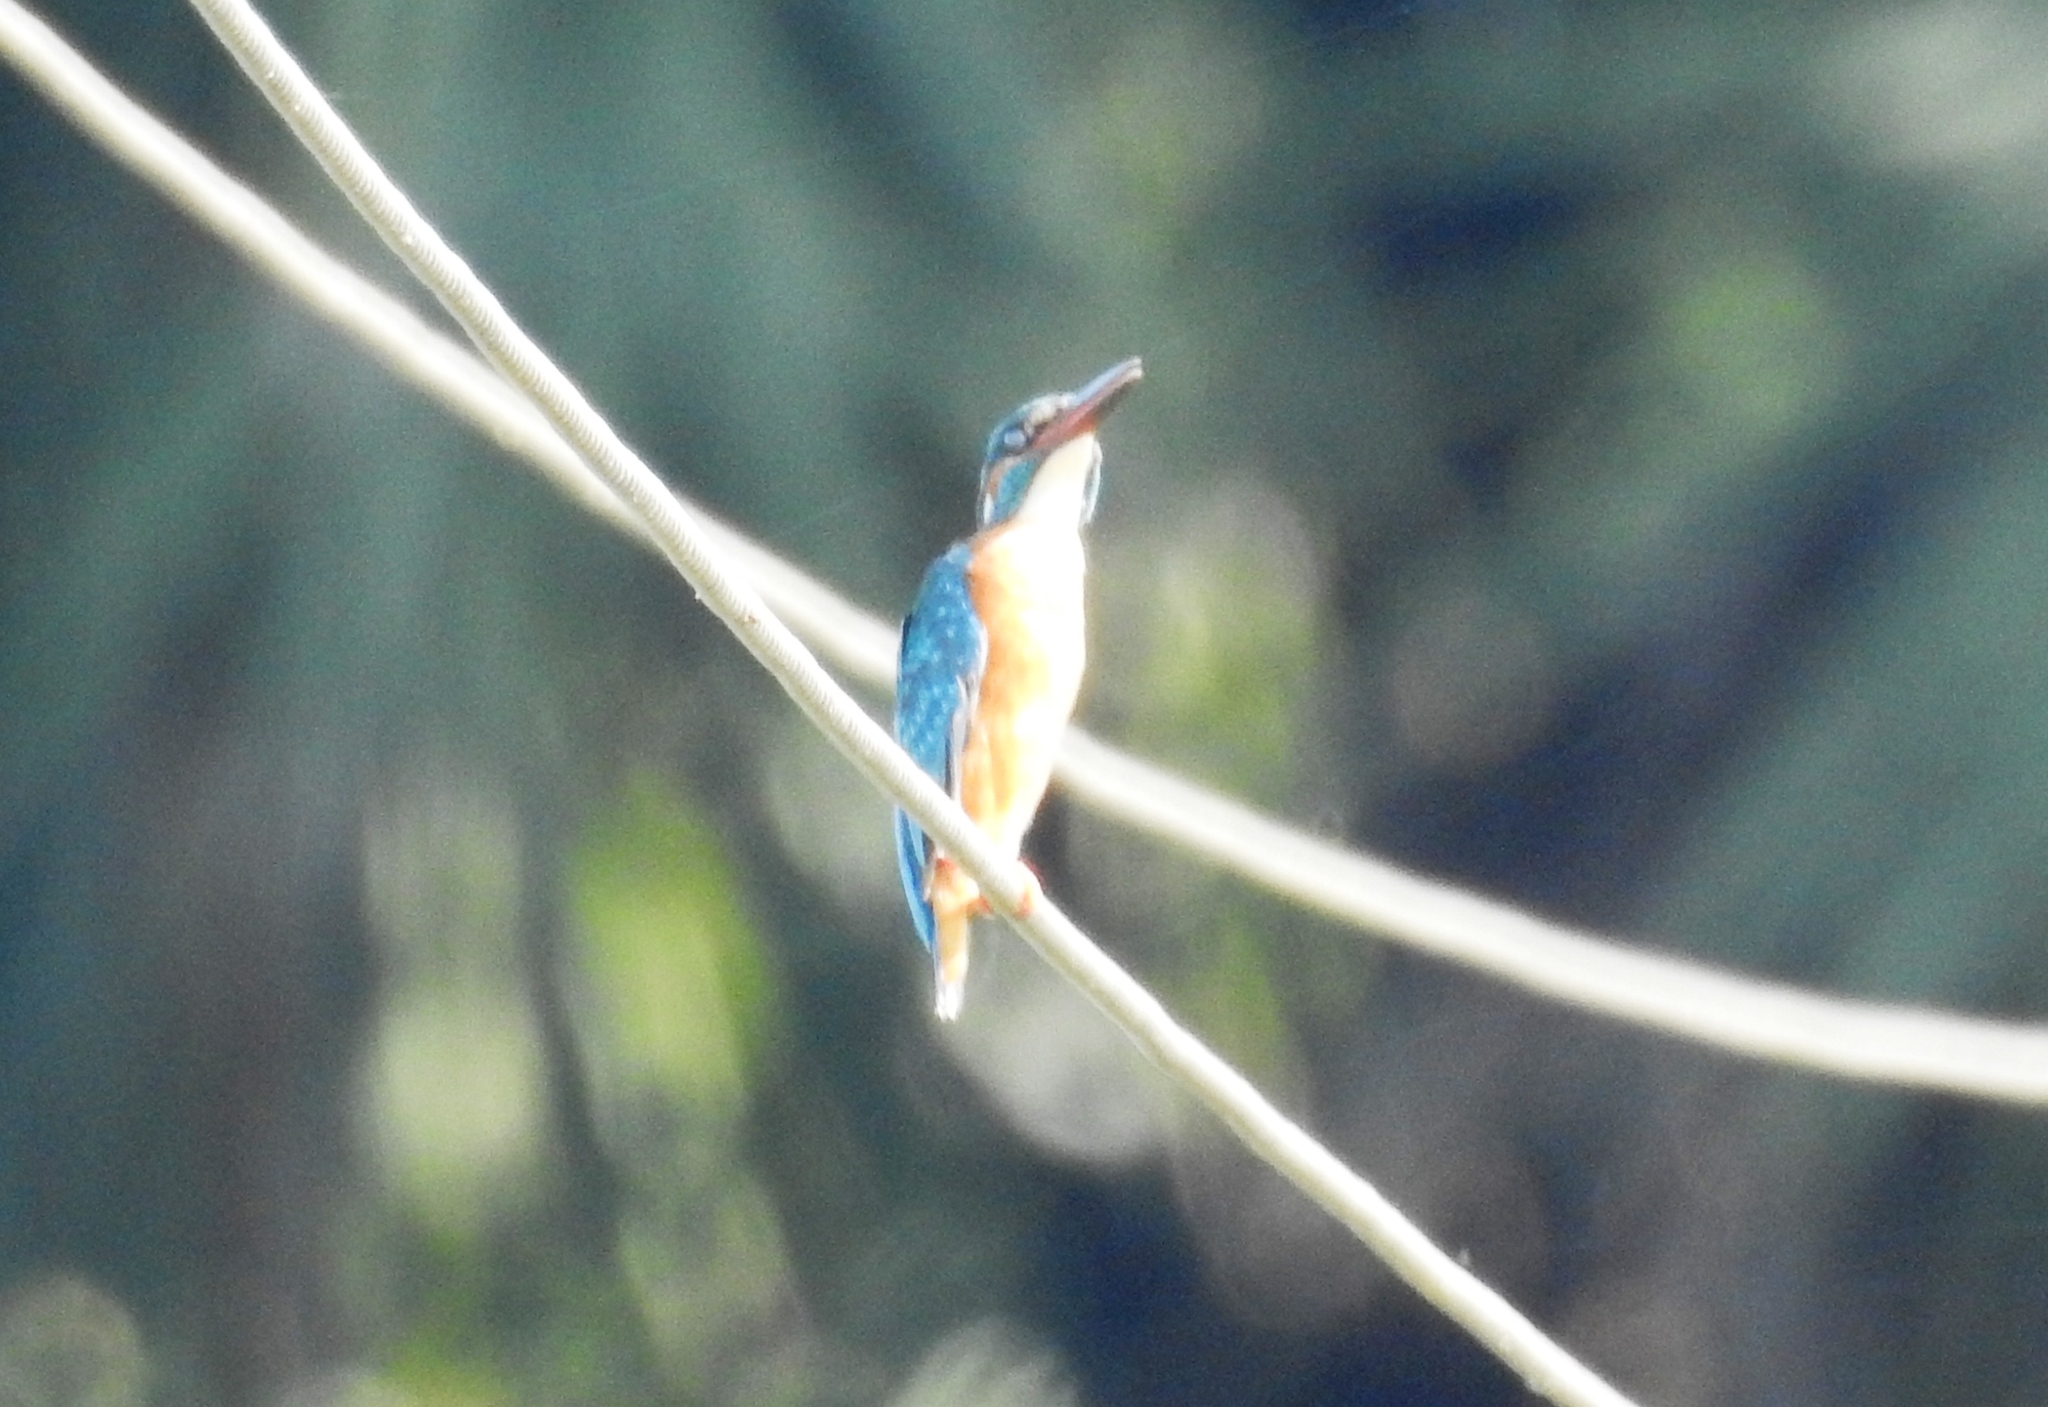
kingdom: Animalia
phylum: Chordata
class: Aves
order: Coraciiformes
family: Alcedinidae
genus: Alcedo
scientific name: Alcedo atthis
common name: Common kingfisher
